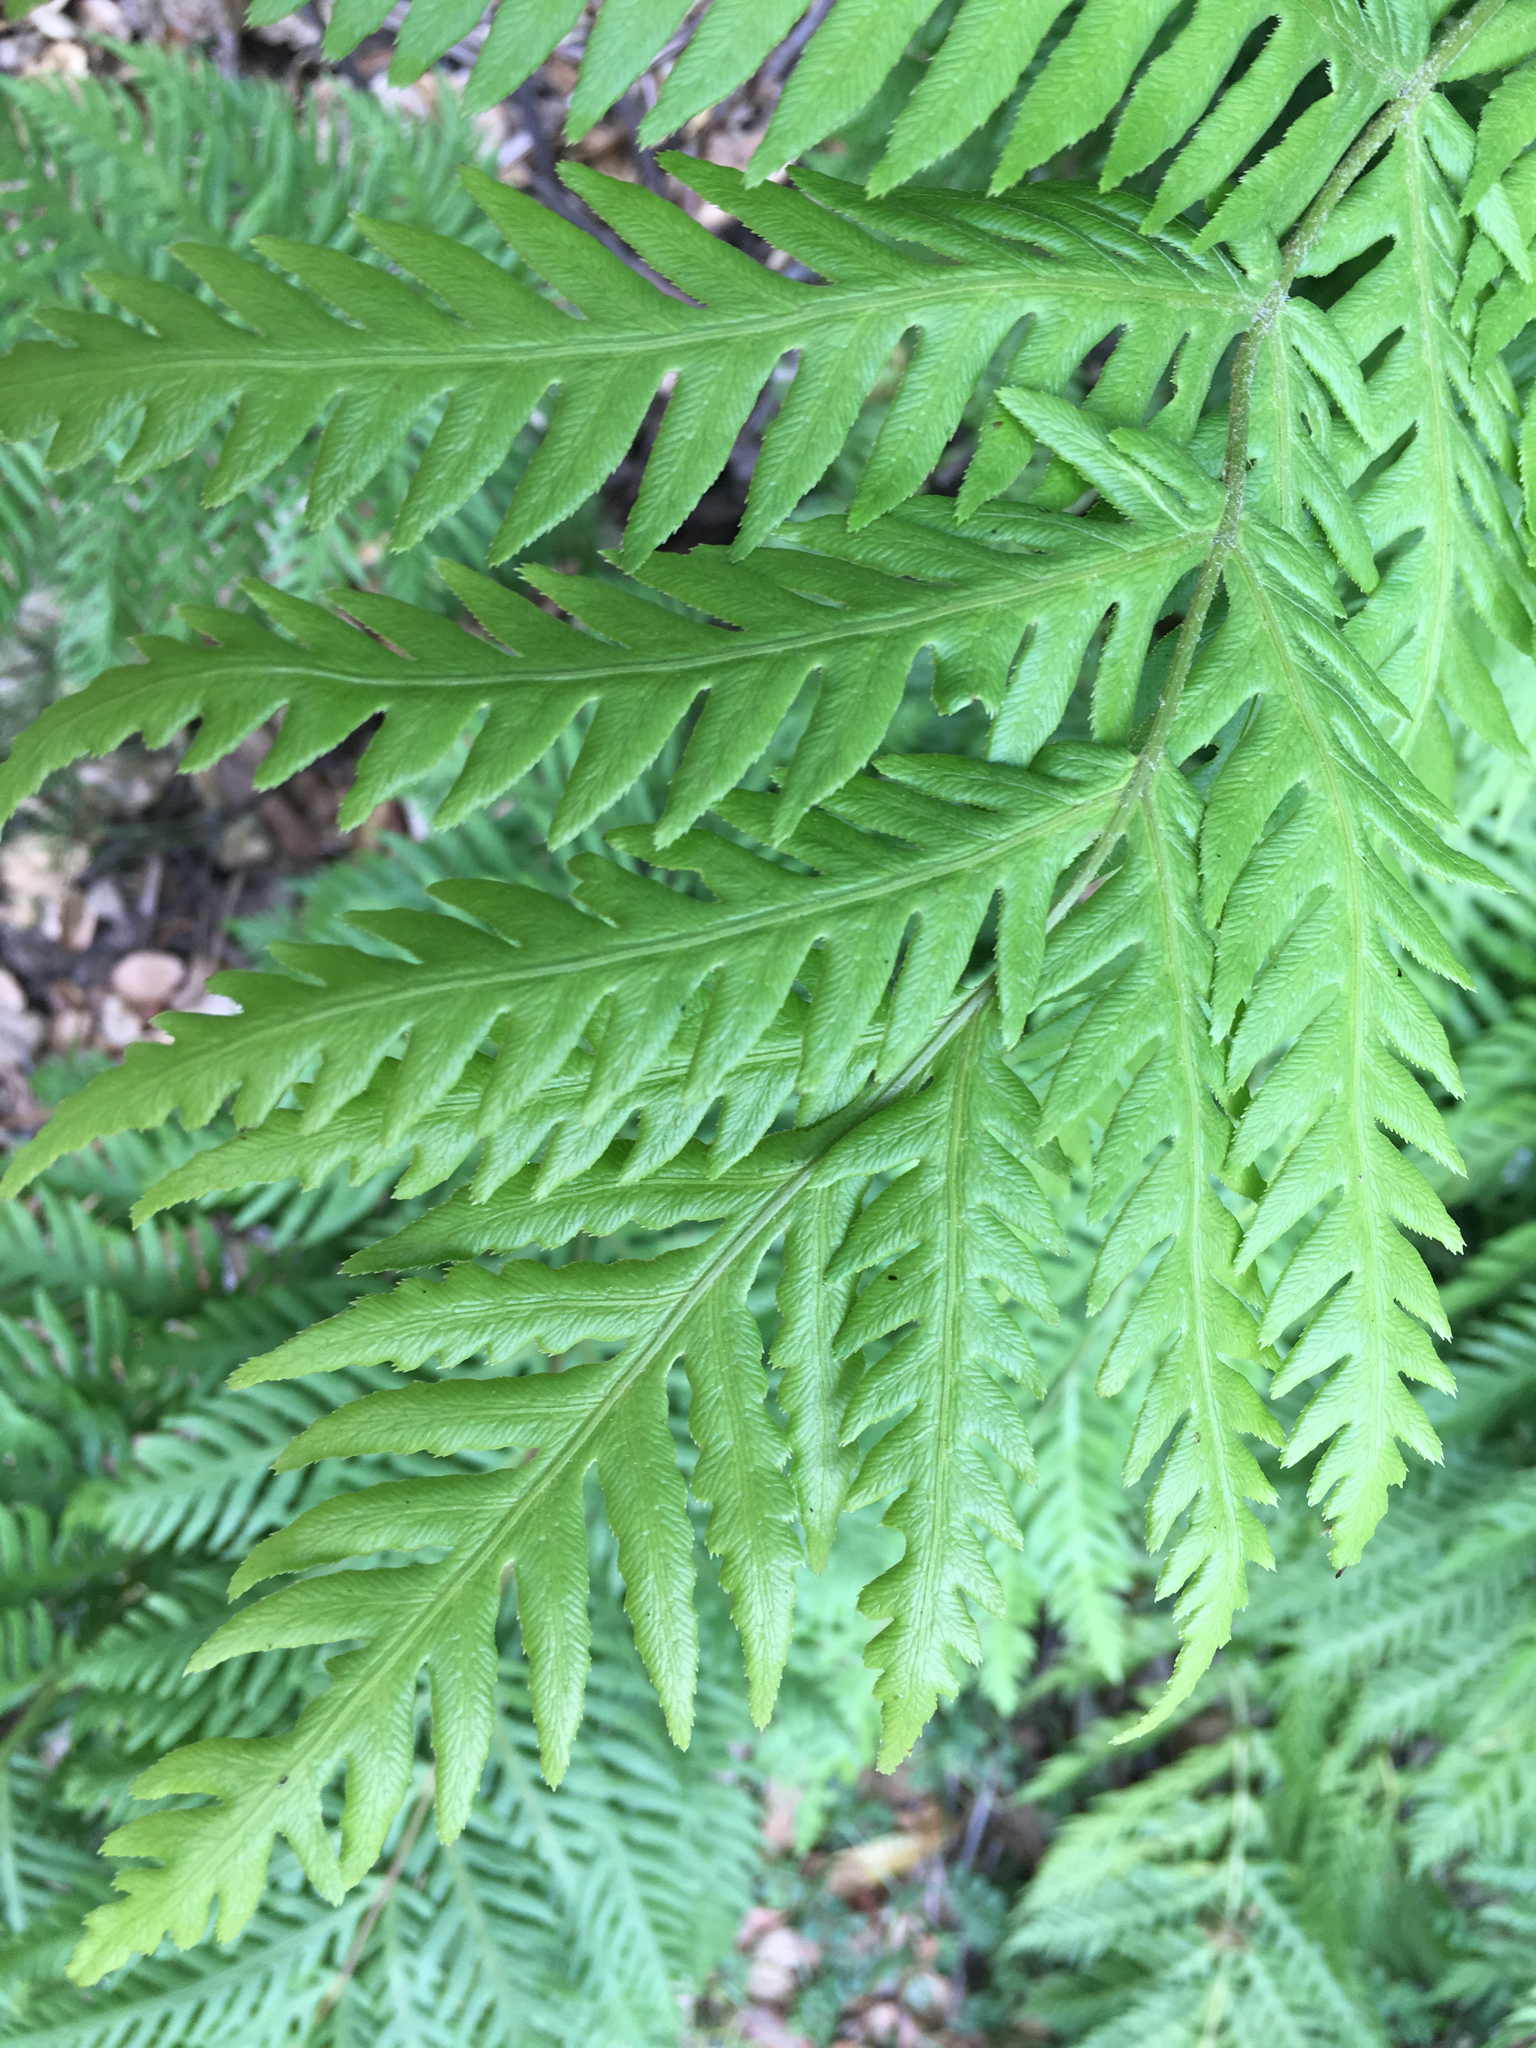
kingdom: Plantae
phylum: Tracheophyta
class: Polypodiopsida
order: Polypodiales
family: Blechnaceae
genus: Woodwardia
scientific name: Woodwardia fimbriata
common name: Giant chain fern
